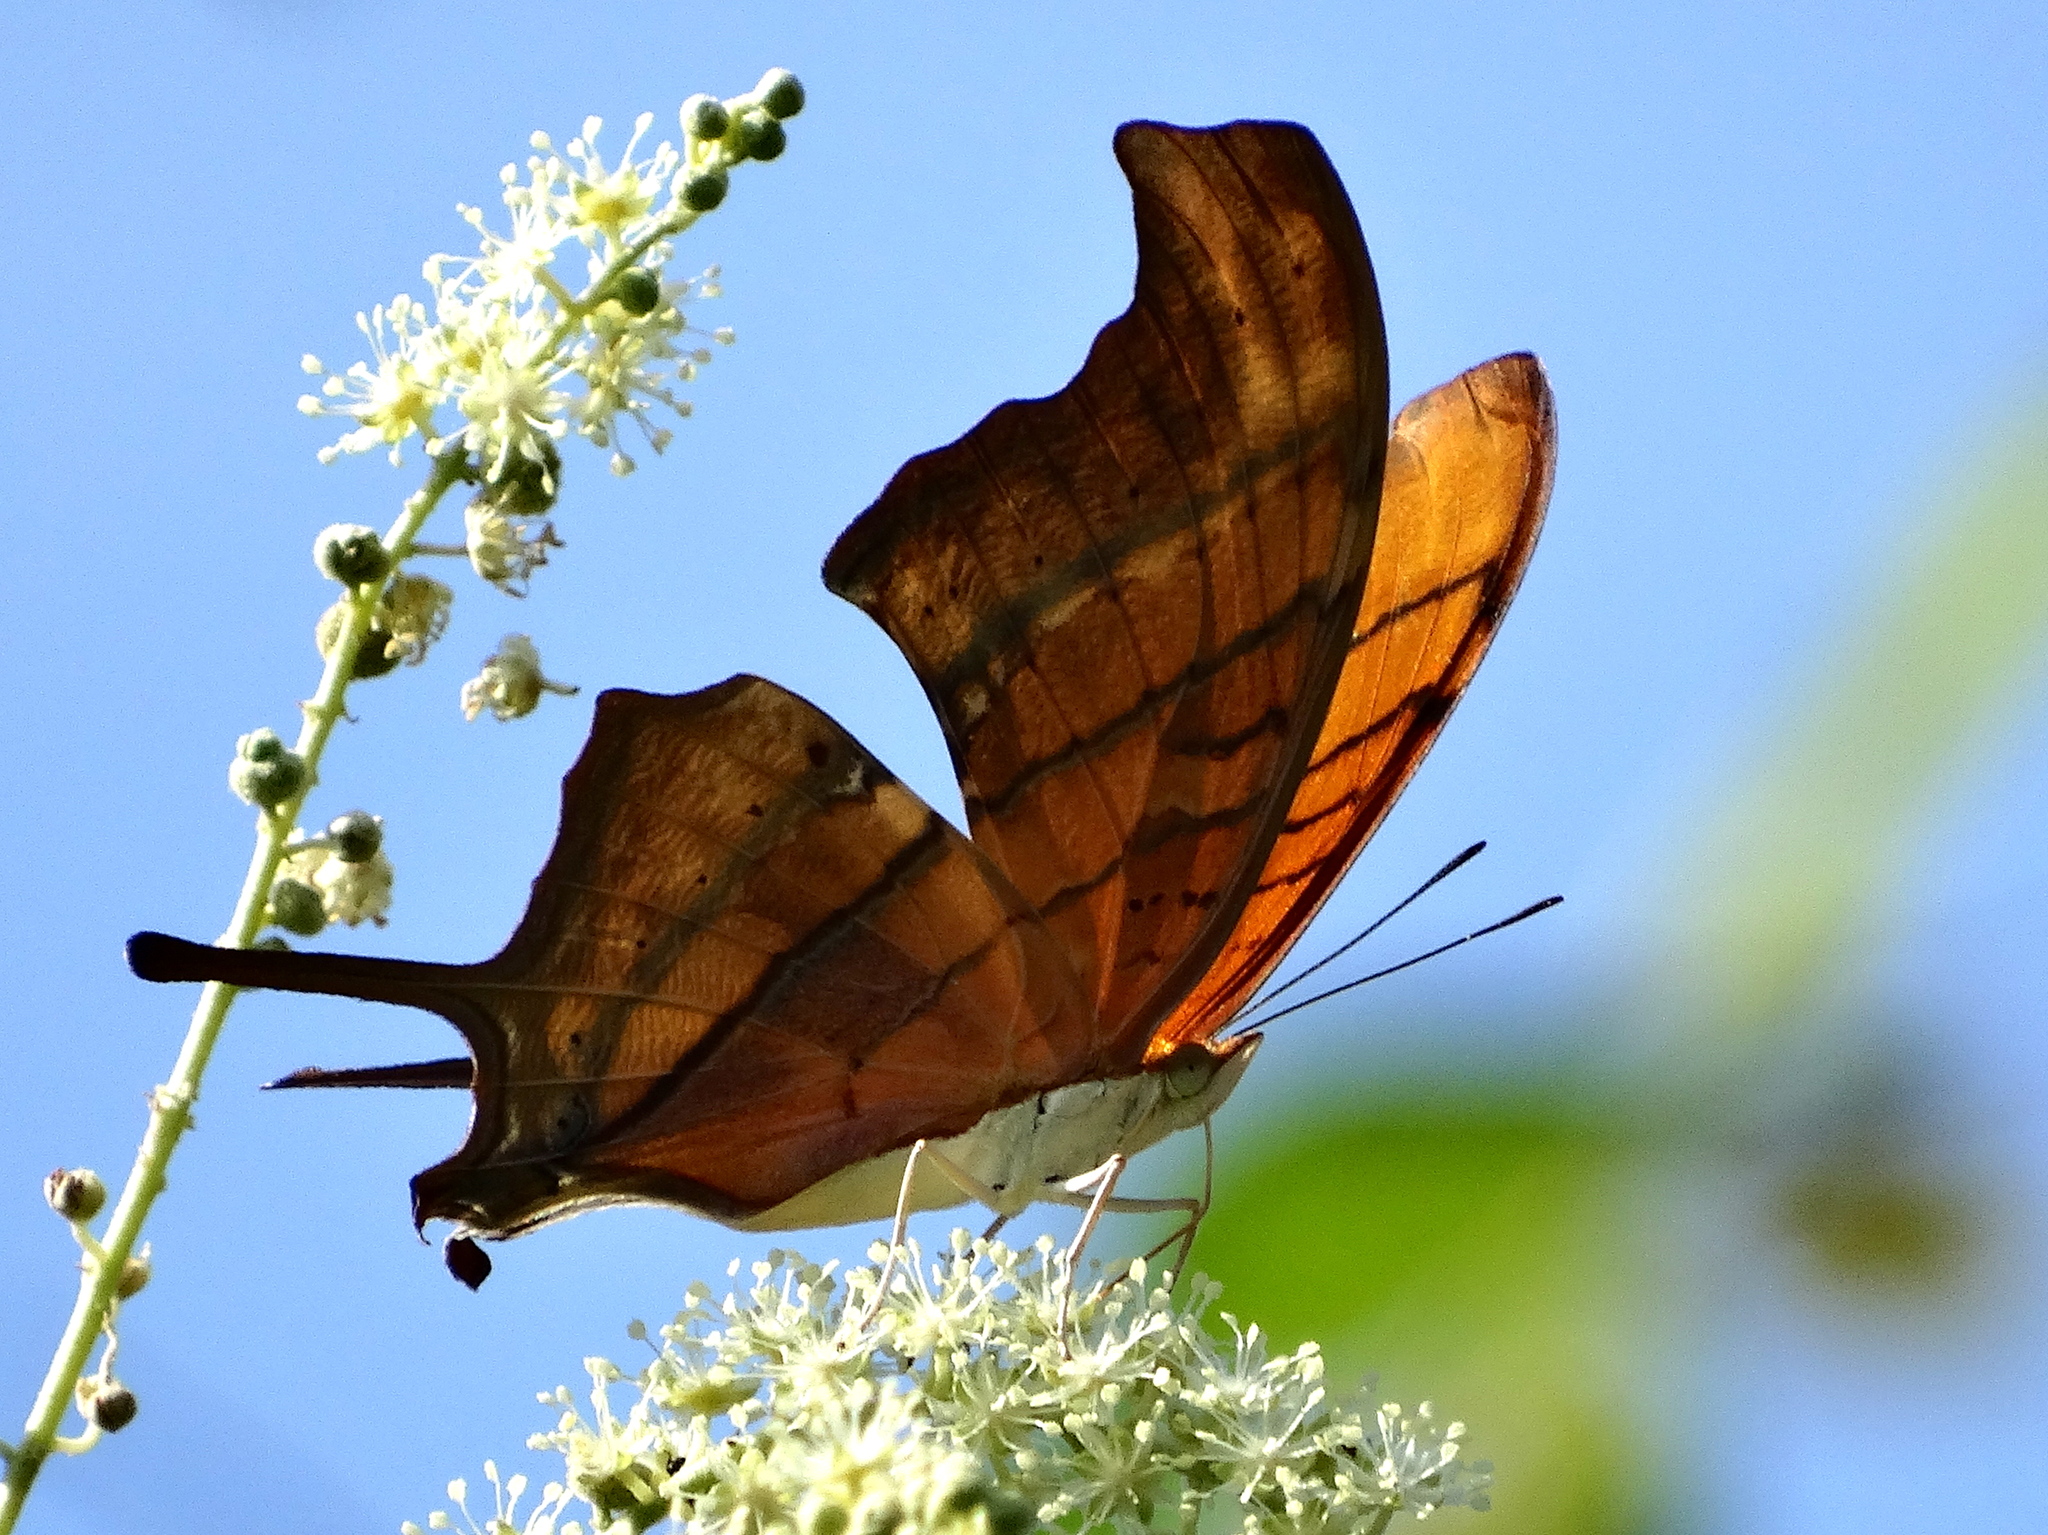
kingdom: Animalia
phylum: Arthropoda
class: Insecta
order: Lepidoptera
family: Nymphalidae
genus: Marpesia
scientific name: Marpesia petreus
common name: Red dagger wing
